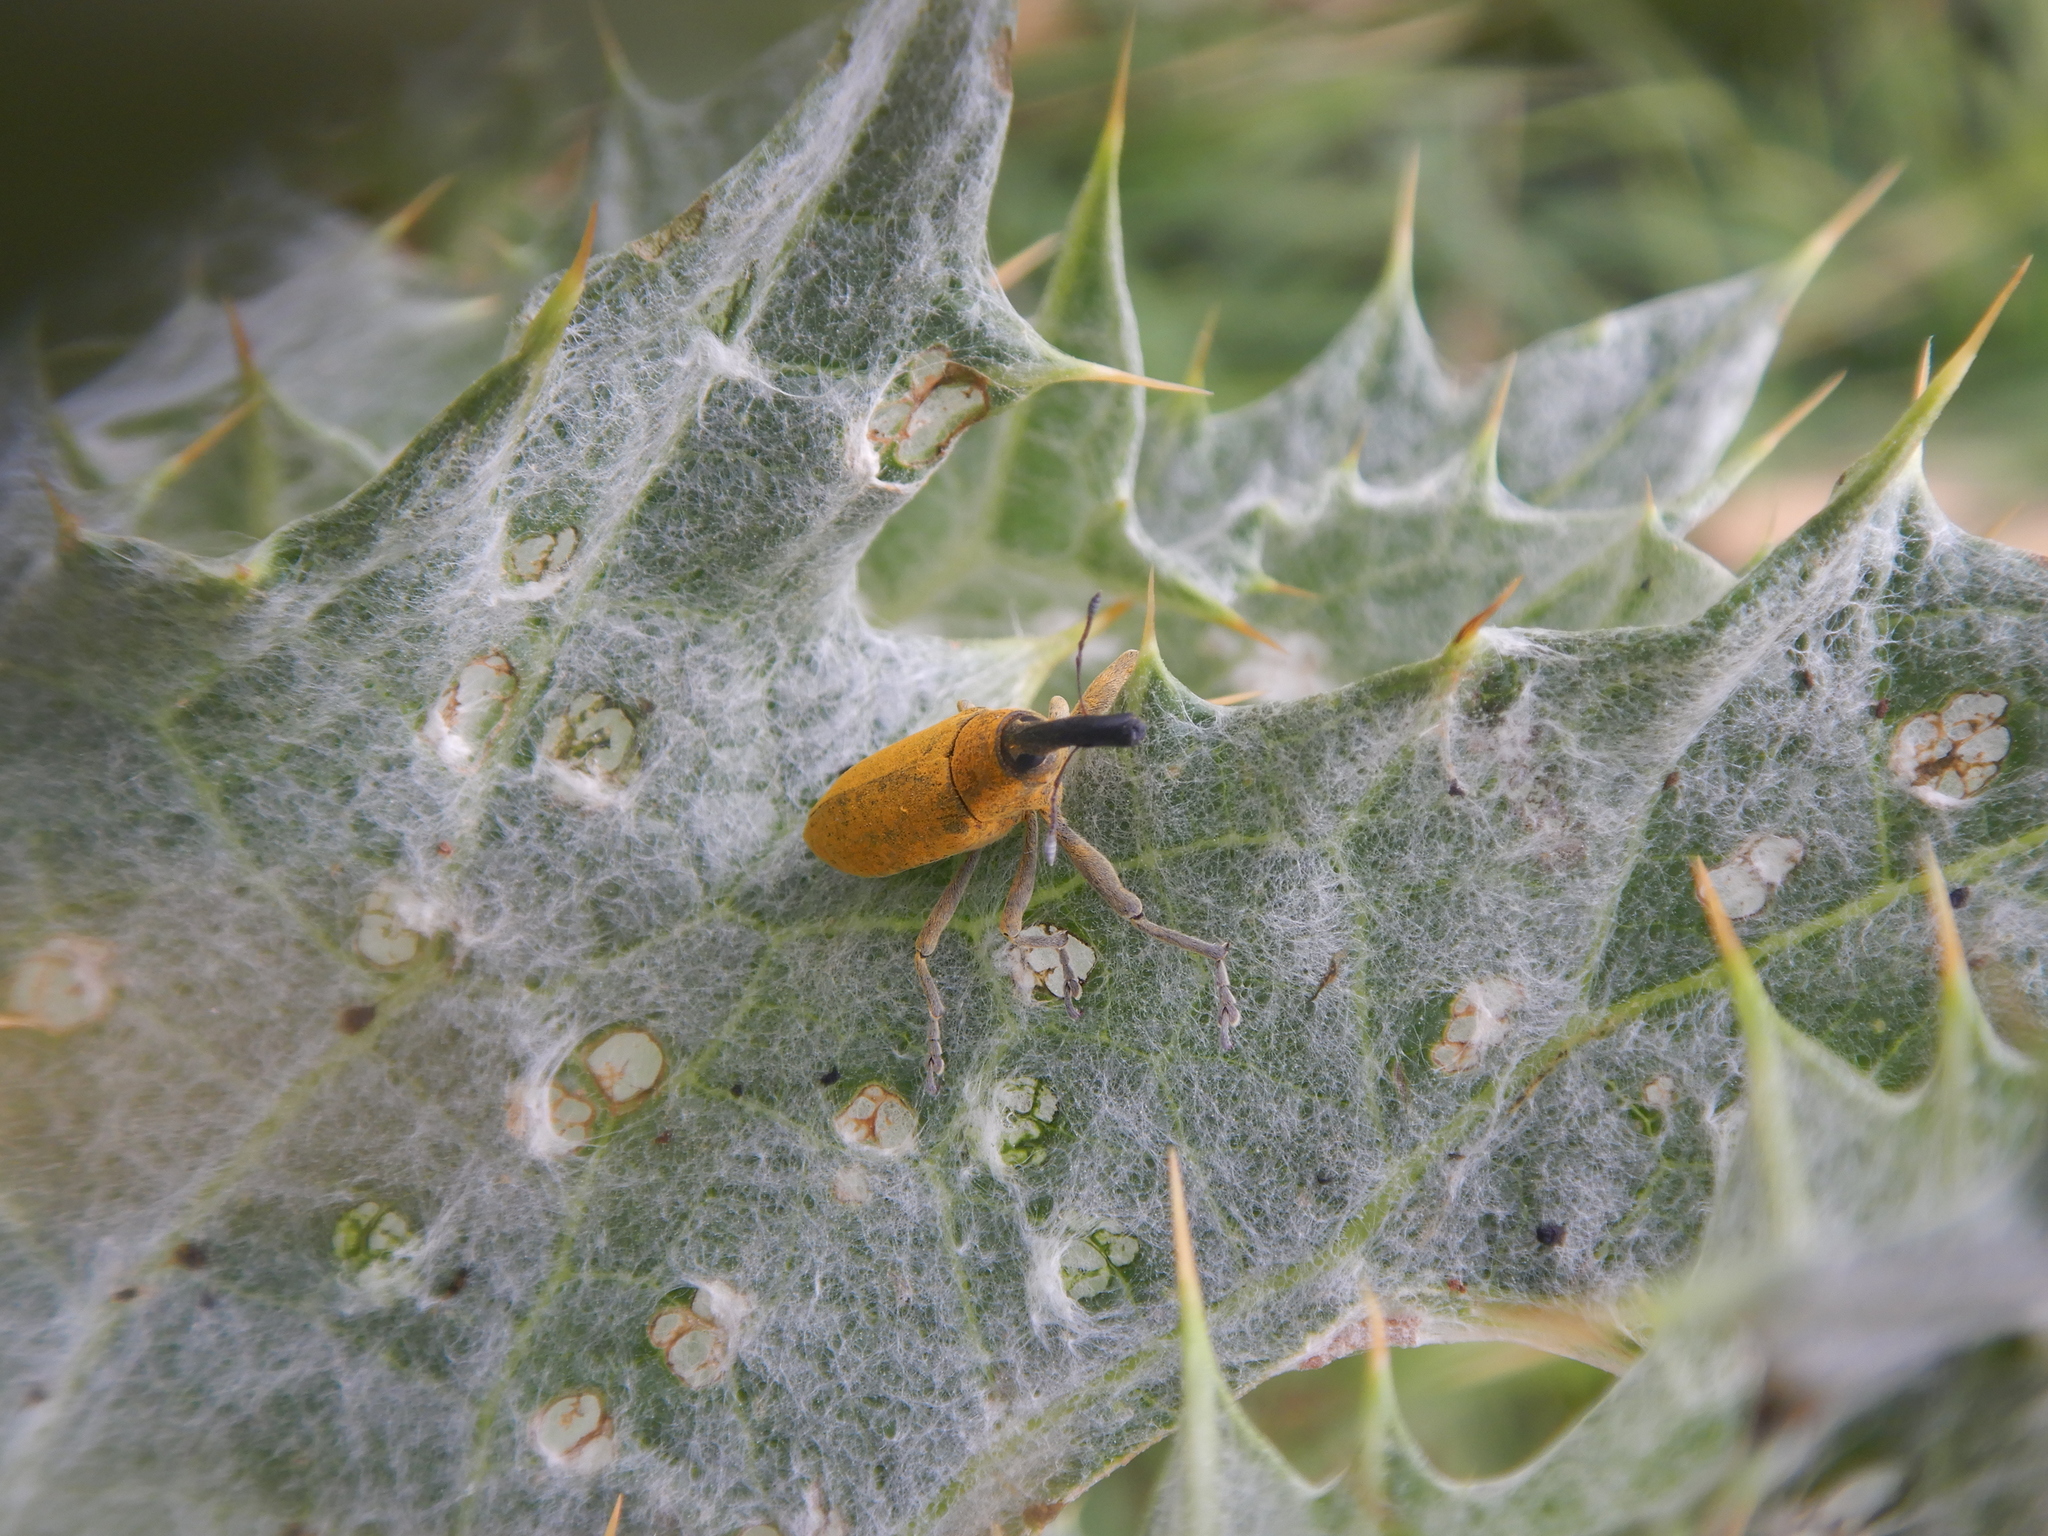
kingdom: Animalia
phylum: Arthropoda
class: Insecta
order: Coleoptera
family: Curculionidae
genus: Lixus
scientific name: Lixus pulverulentus
